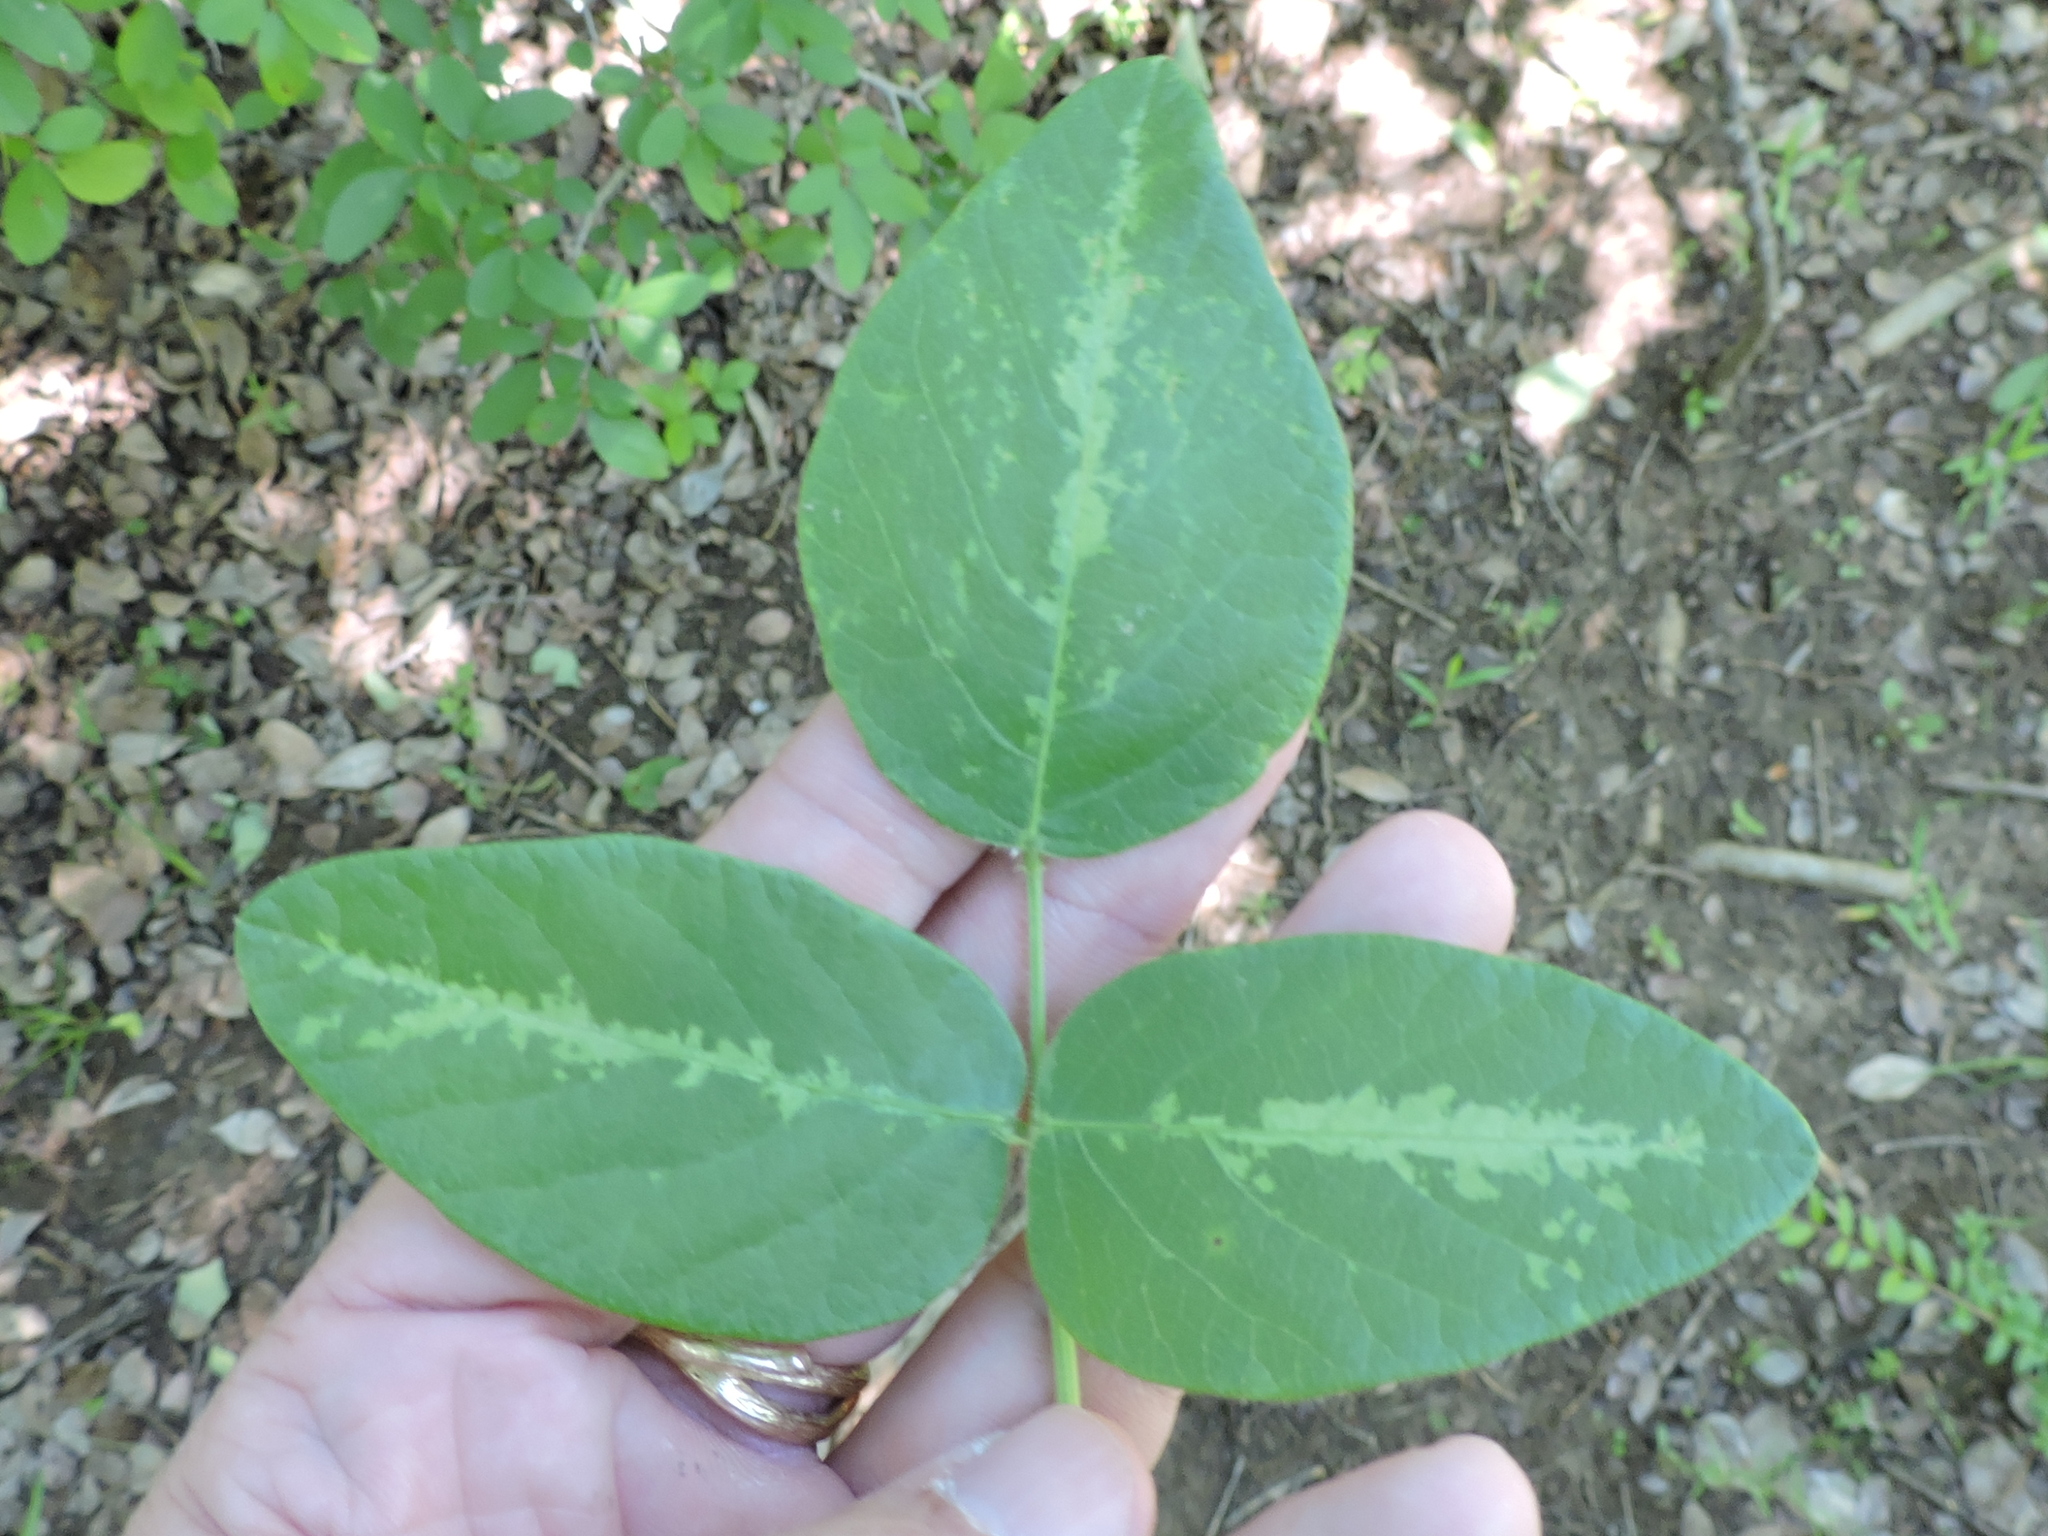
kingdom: Plantae
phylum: Tracheophyta
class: Magnoliopsida
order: Fabales
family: Fabaceae
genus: Desmodium
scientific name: Desmodium tweedyi
